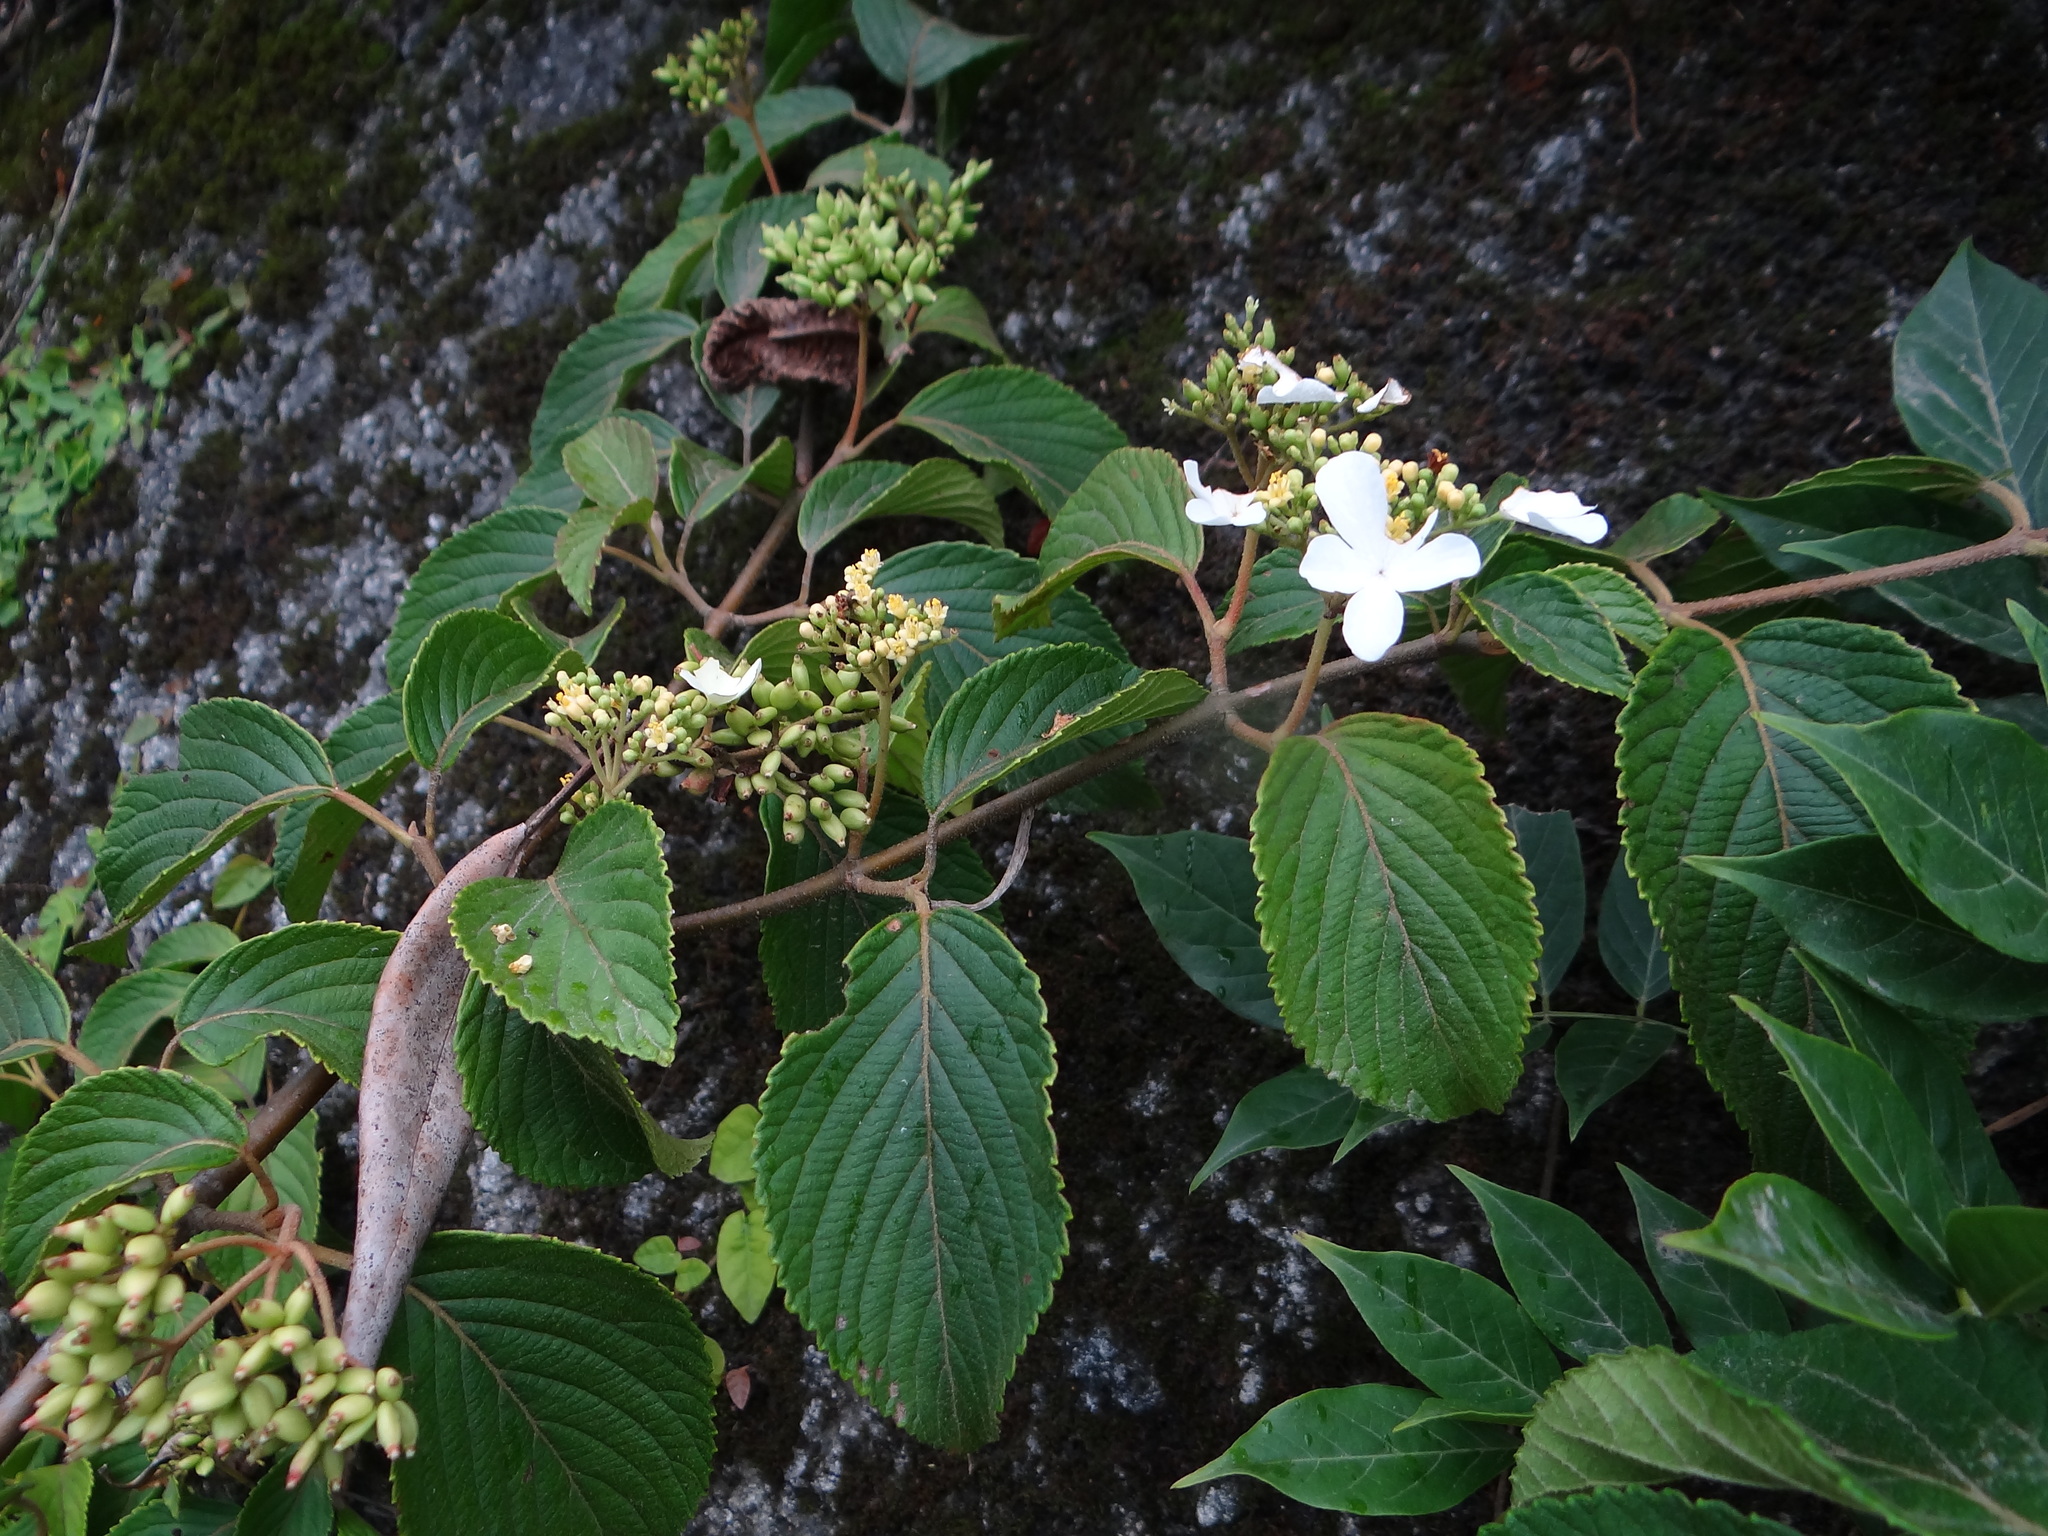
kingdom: Plantae
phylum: Tracheophyta
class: Magnoliopsida
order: Dipsacales
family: Viburnaceae
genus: Viburnum
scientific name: Viburnum plicatum
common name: Japanese snowball
